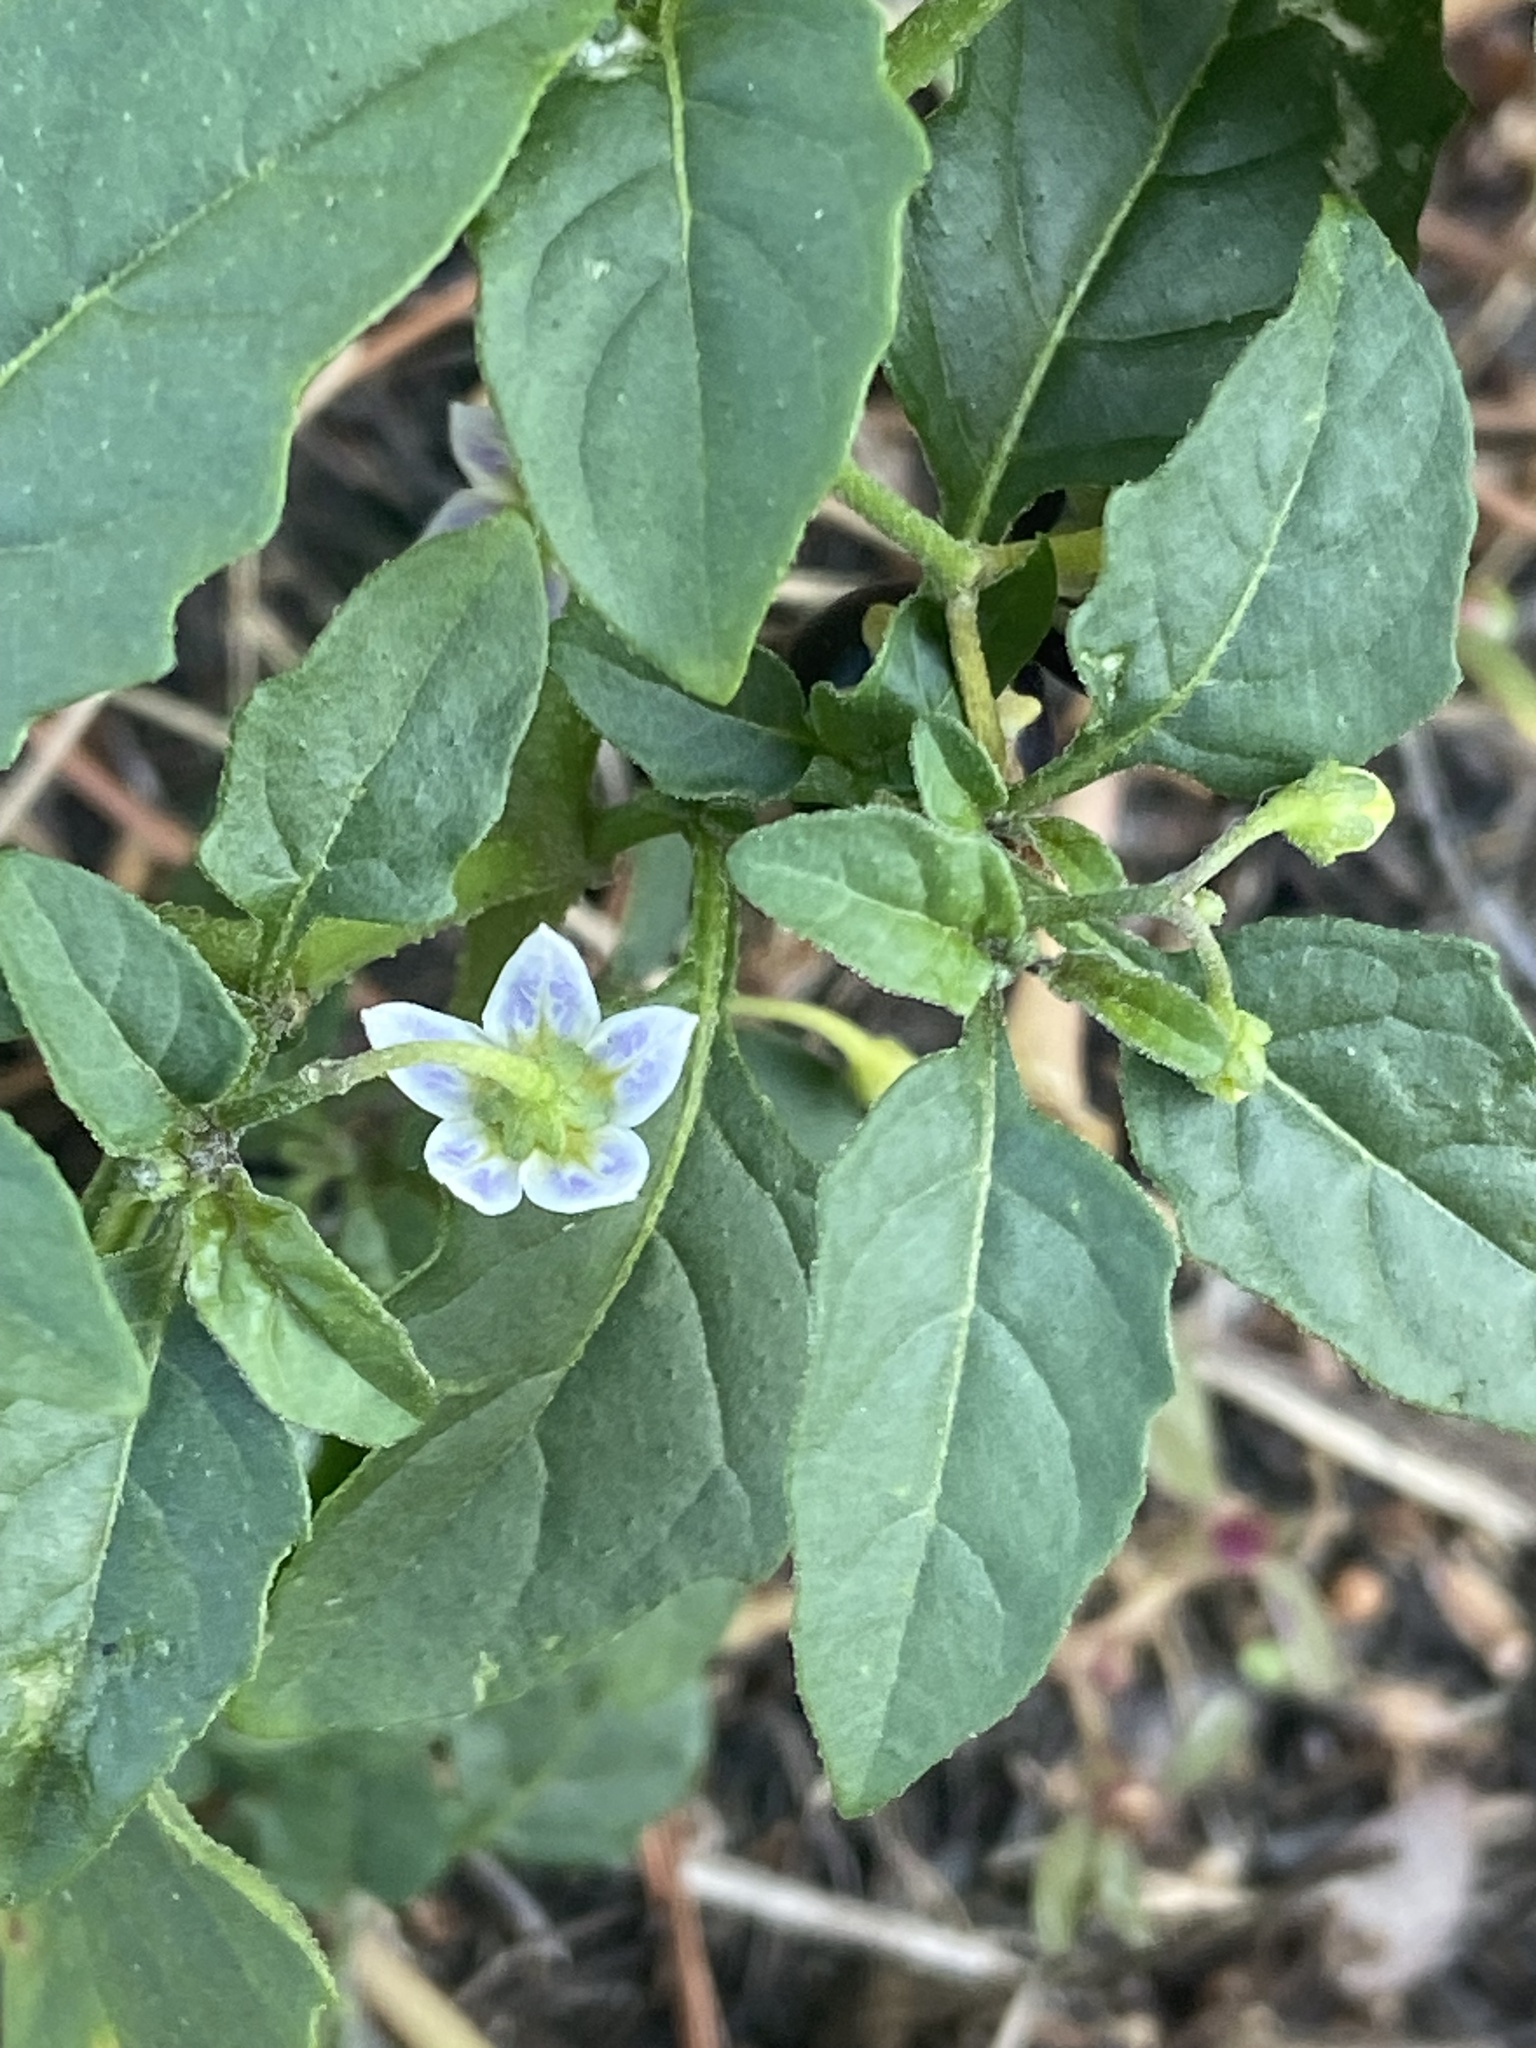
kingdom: Plantae
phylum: Tracheophyta
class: Magnoliopsida
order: Solanales
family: Solanaceae
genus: Solanum
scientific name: Solanum emulans
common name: Eastern black nightshade
